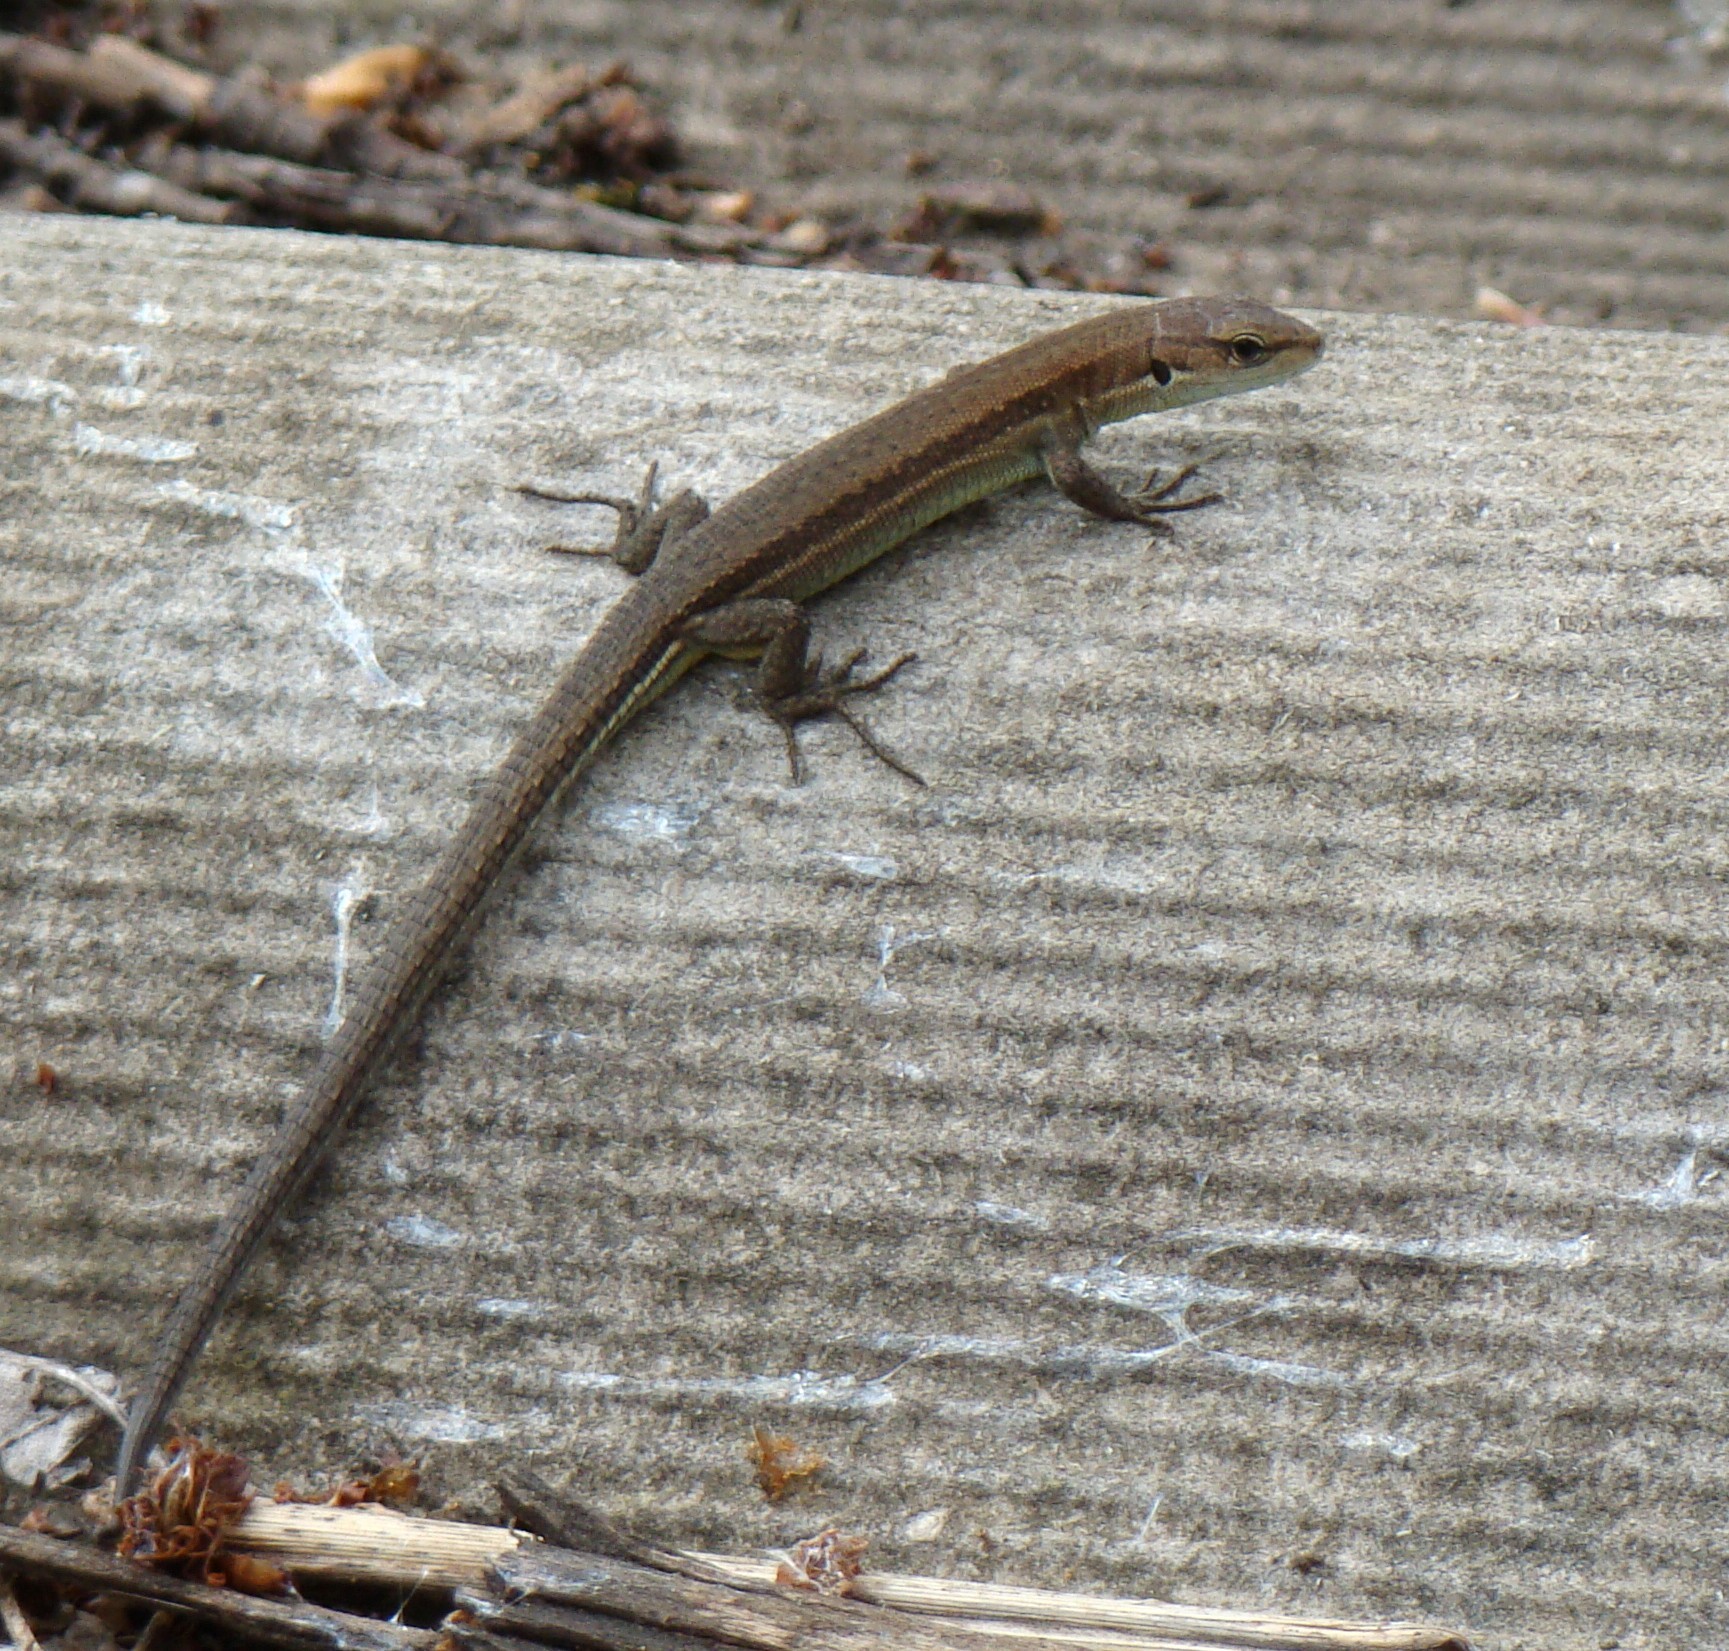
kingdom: Animalia
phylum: Chordata
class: Squamata
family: Lacertidae
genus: Darevskia
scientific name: Darevskia praticola
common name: Meadow lizard
